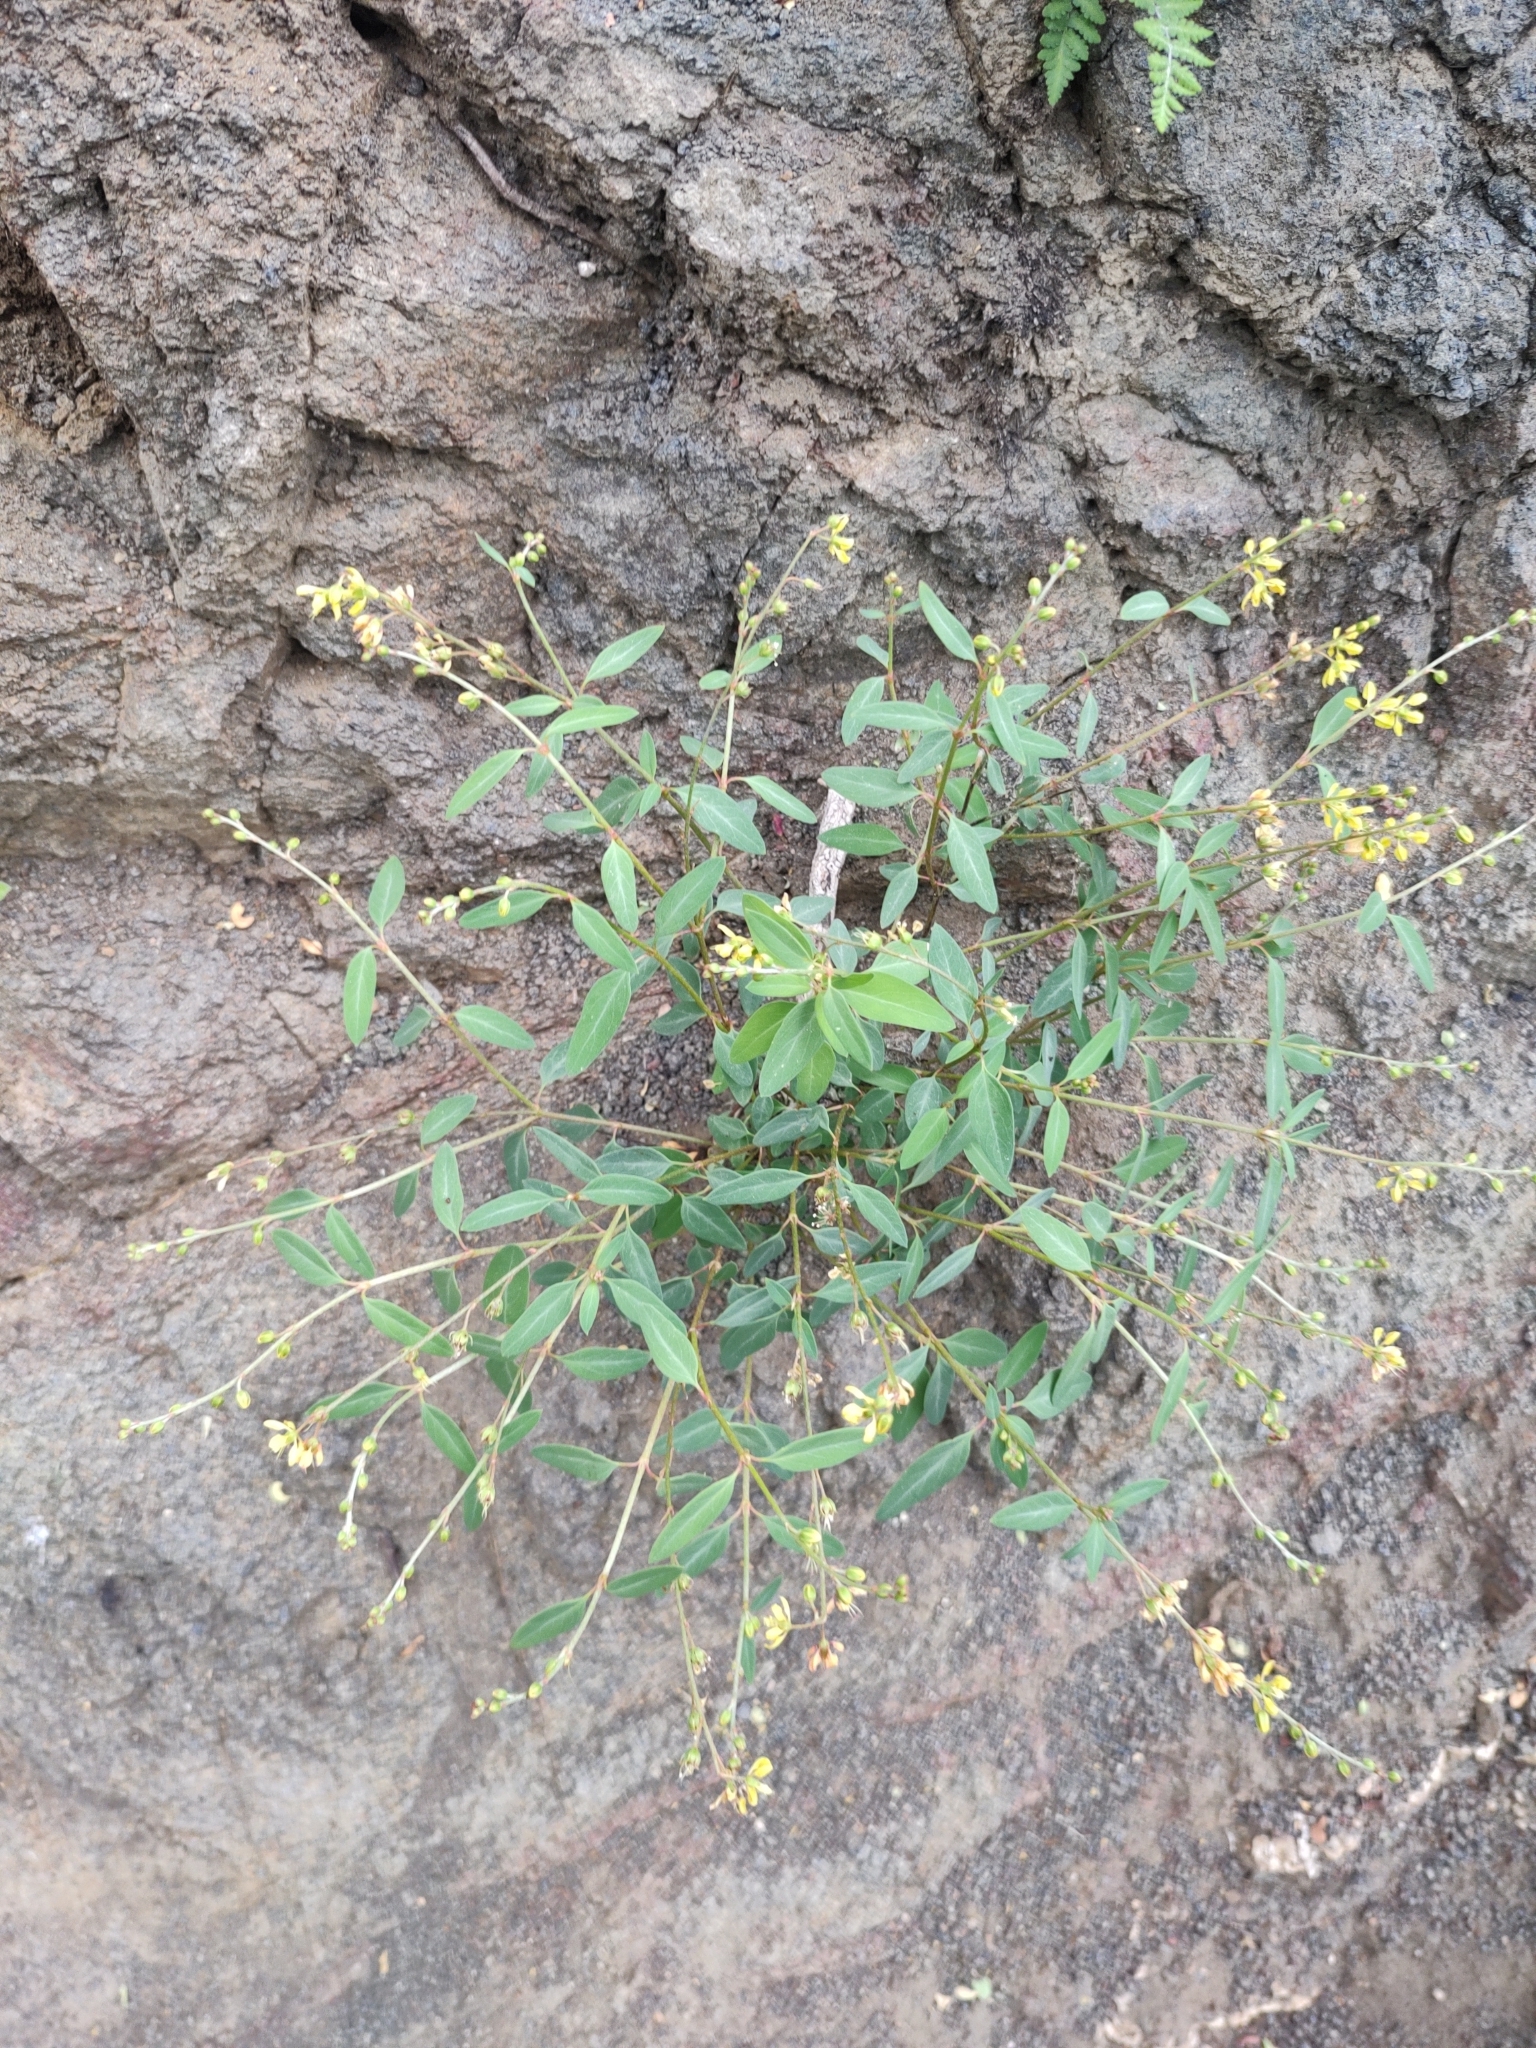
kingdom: Plantae
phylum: Tracheophyta
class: Magnoliopsida
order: Malpighiales
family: Malpighiaceae
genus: Galphimia
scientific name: Galphimia angustifolia
